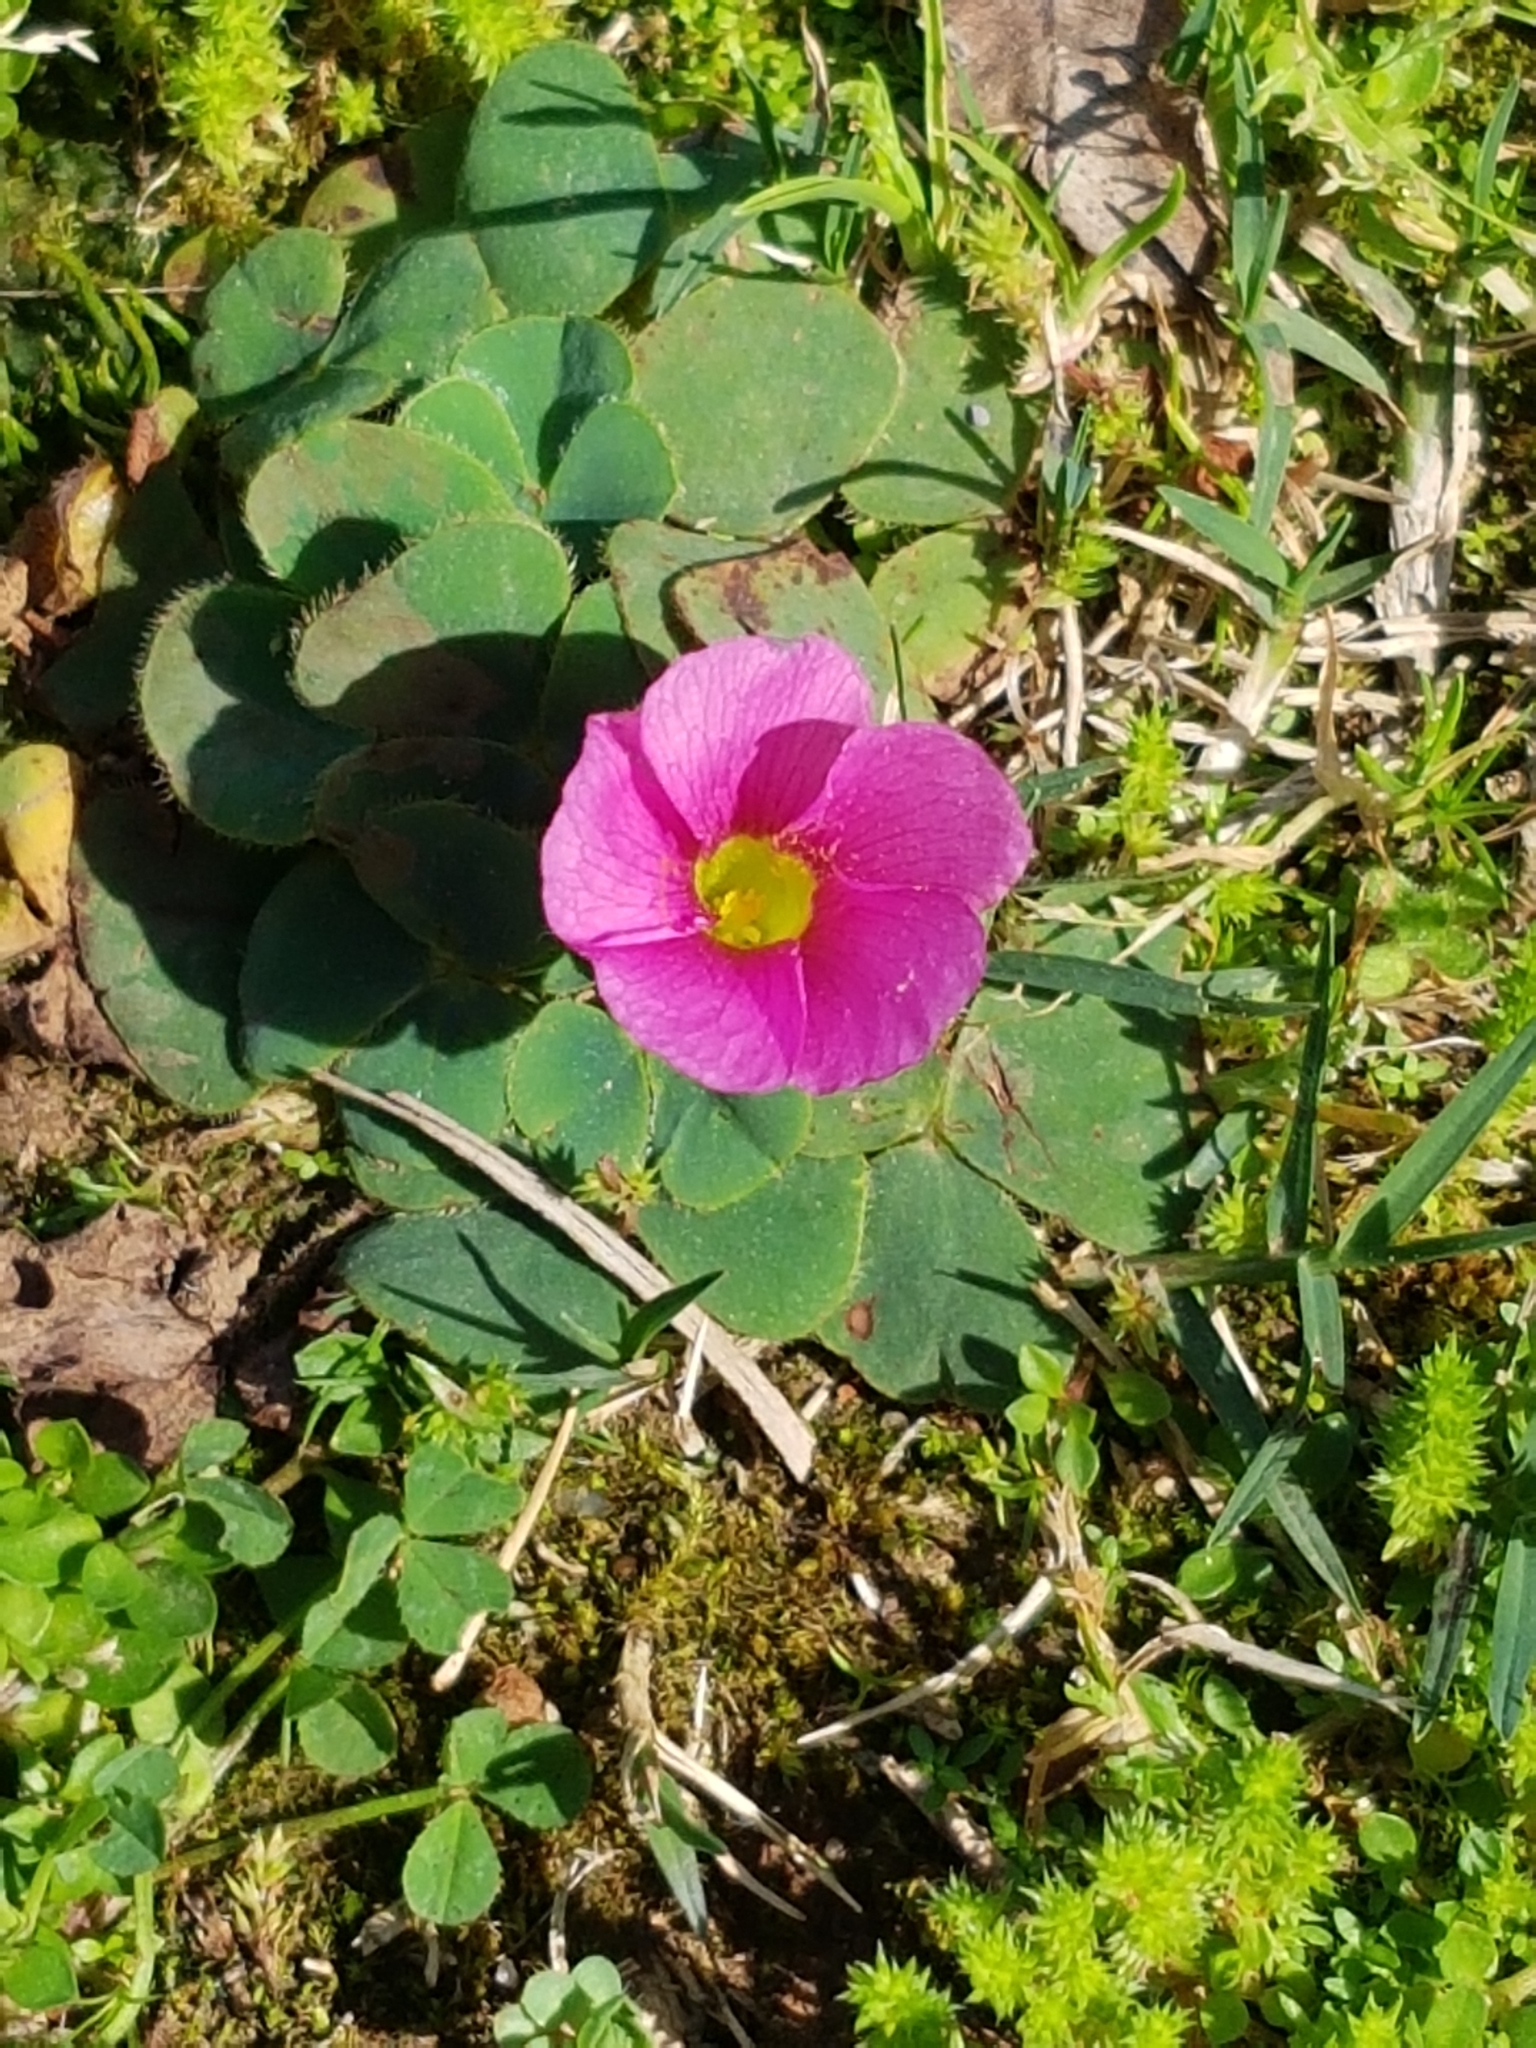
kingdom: Plantae
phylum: Tracheophyta
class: Magnoliopsida
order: Oxalidales
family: Oxalidaceae
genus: Oxalis
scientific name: Oxalis purpurea
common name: Purple woodsorrel
